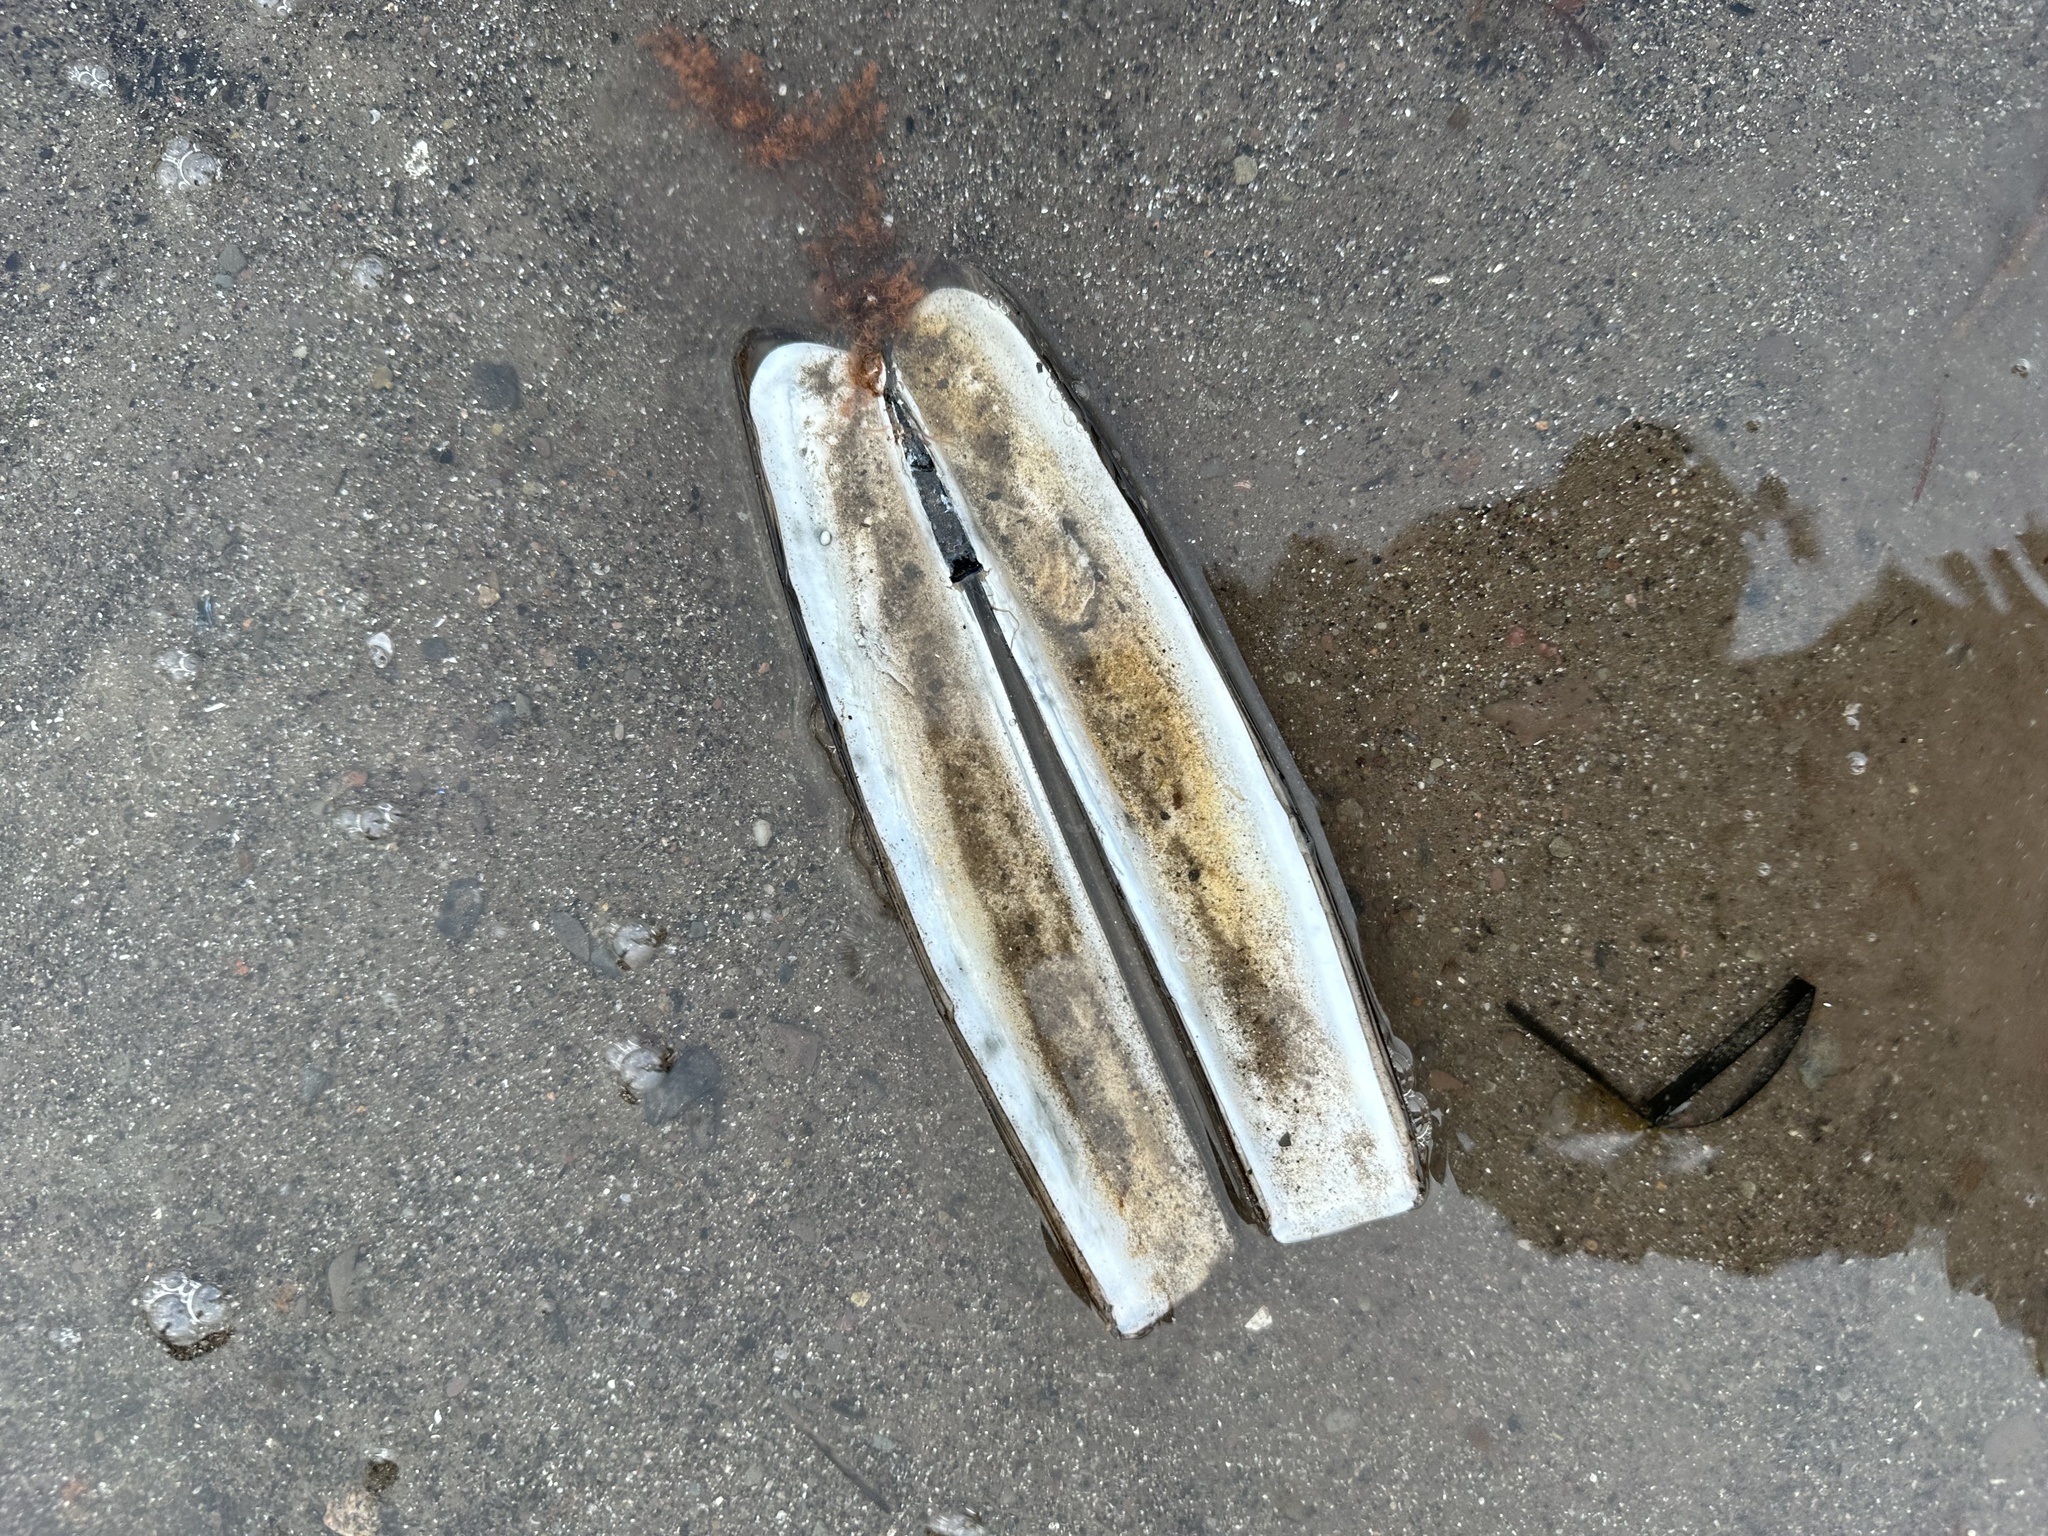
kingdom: Animalia
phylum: Mollusca
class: Bivalvia
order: Adapedonta
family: Pharidae
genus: Ensis
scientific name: Ensis leei
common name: American jack knife clam
